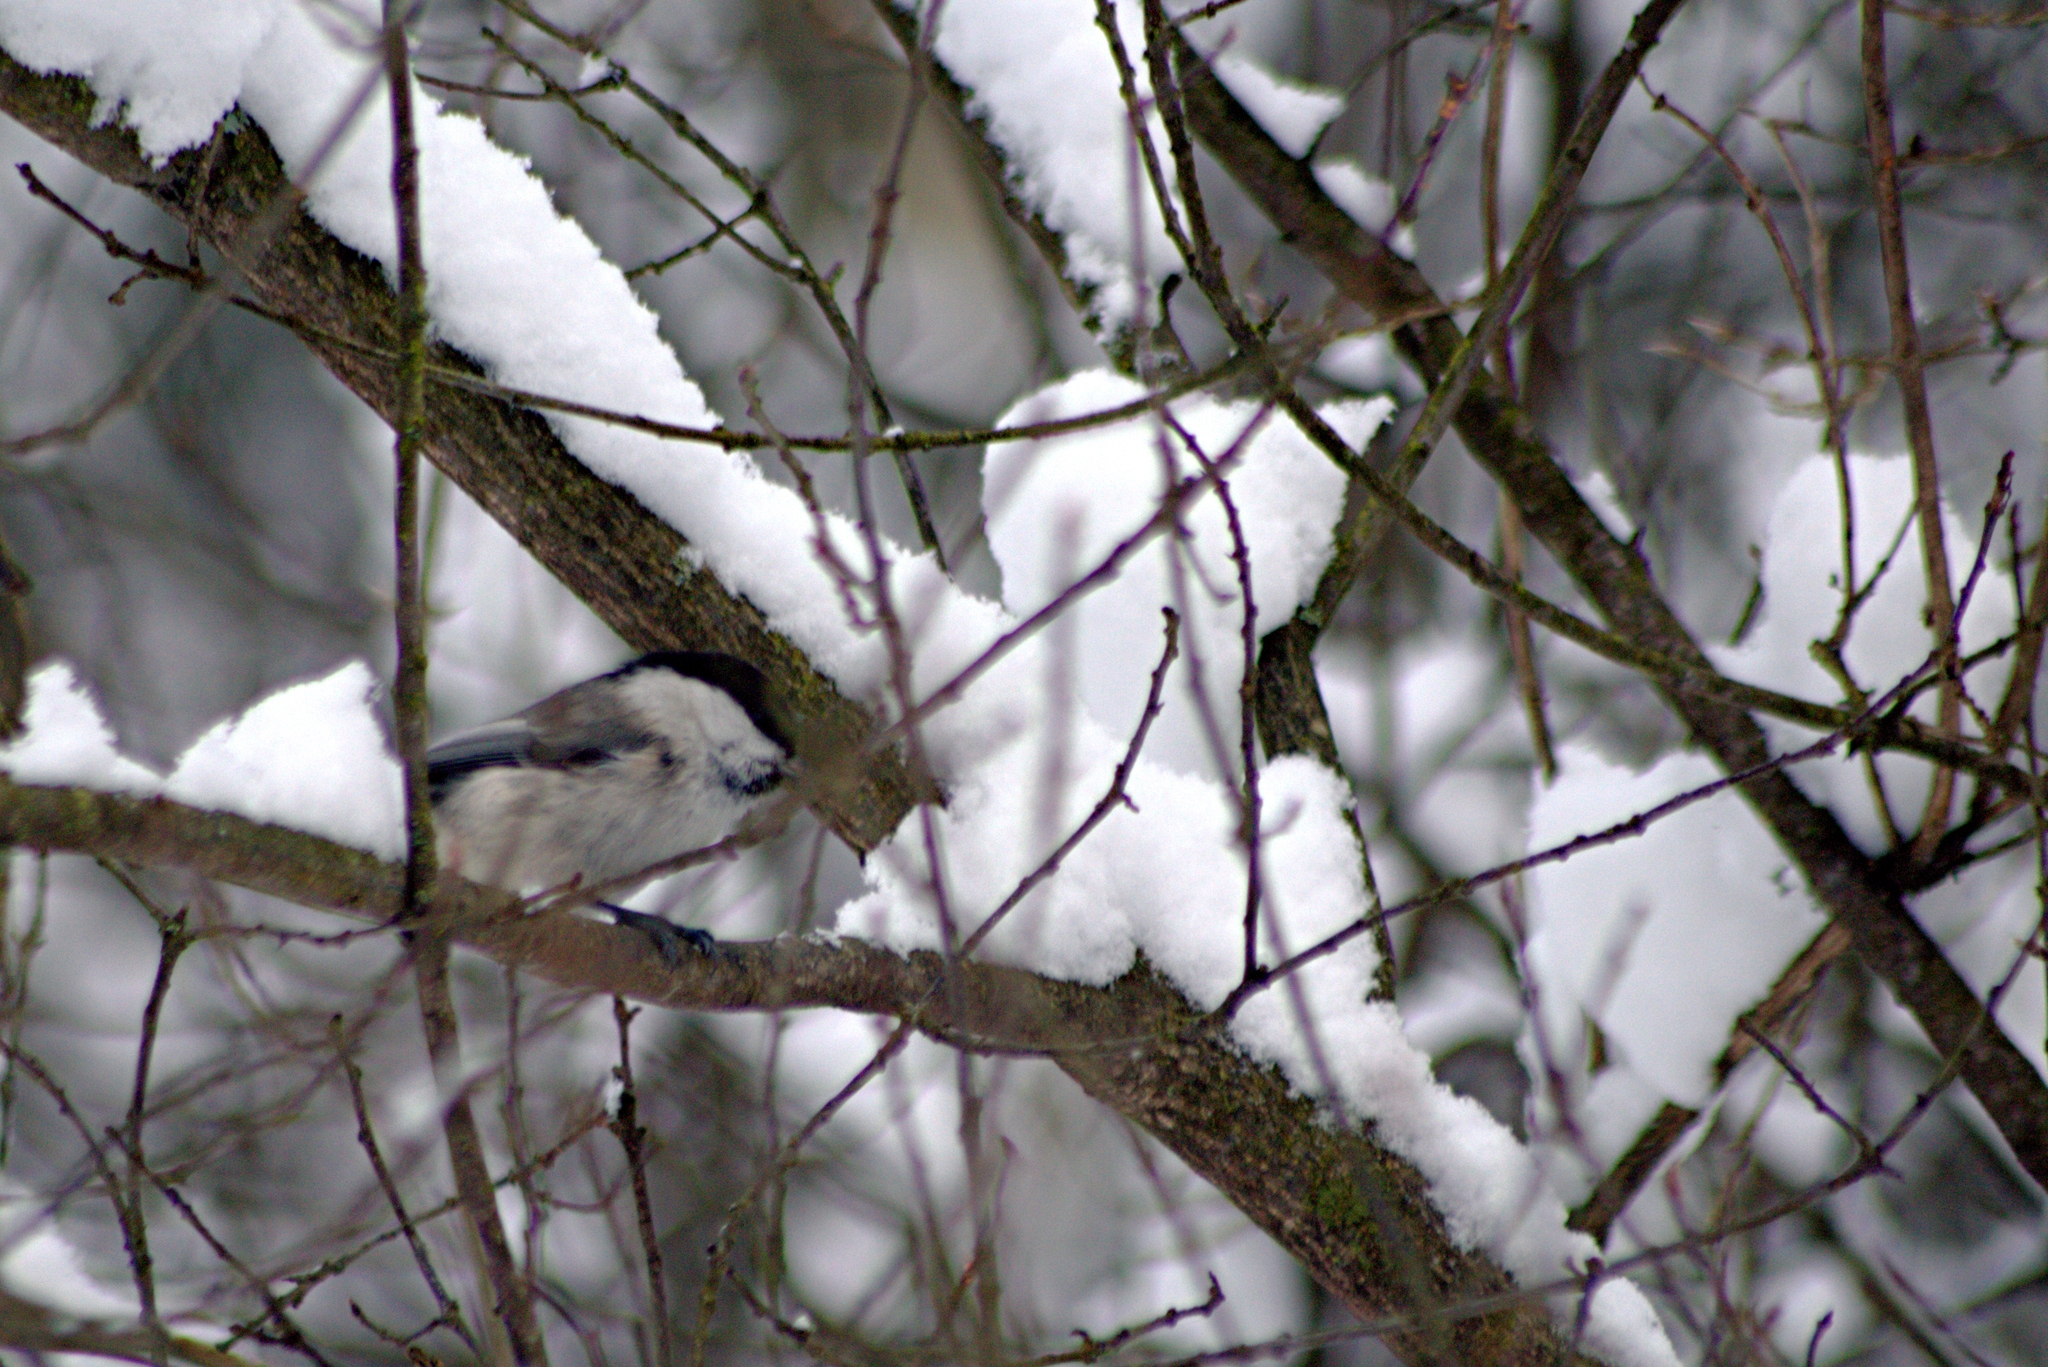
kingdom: Animalia
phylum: Chordata
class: Aves
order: Passeriformes
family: Paridae
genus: Poecile
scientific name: Poecile montanus
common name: Willow tit
